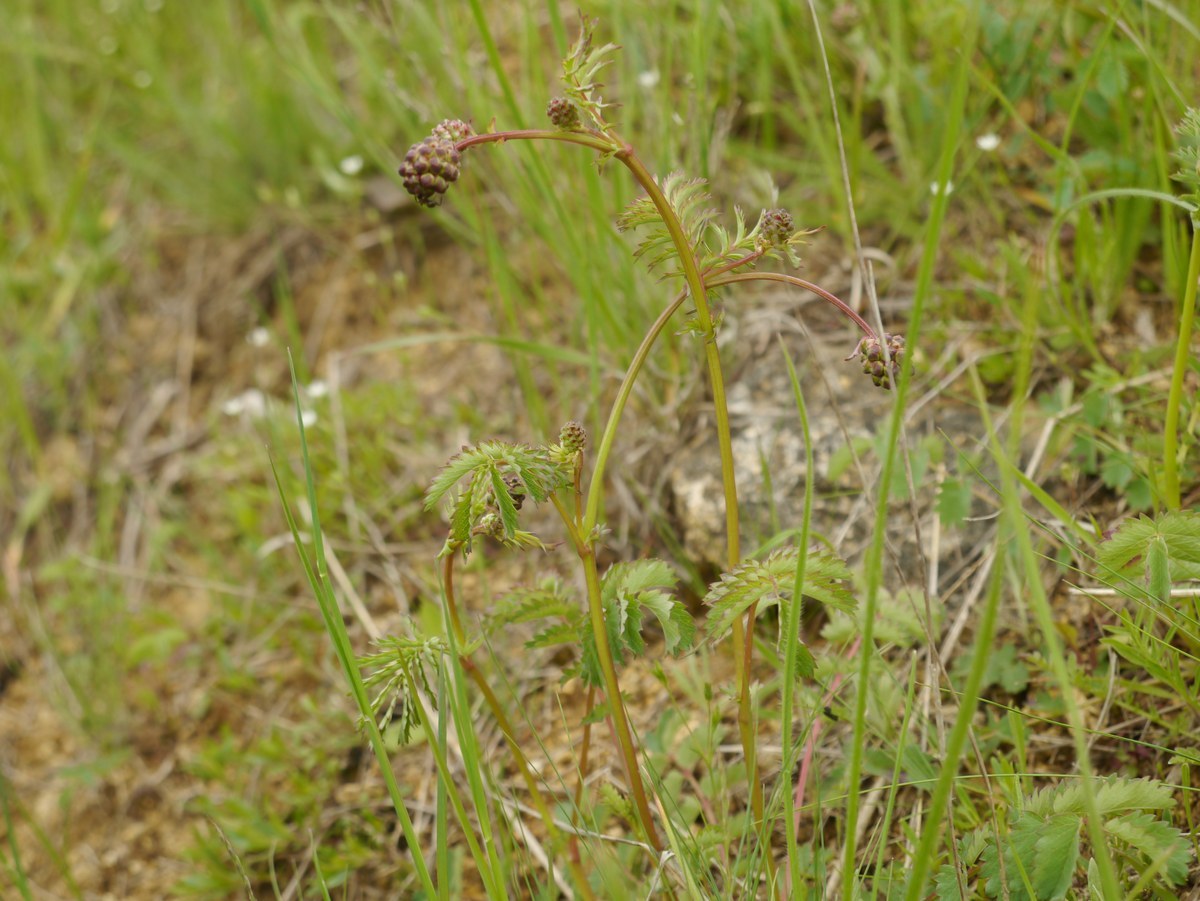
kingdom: Plantae
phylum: Tracheophyta
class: Magnoliopsida
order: Rosales
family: Rosaceae
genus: Poterium
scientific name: Poterium sanguisorba
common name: Salad burnet
